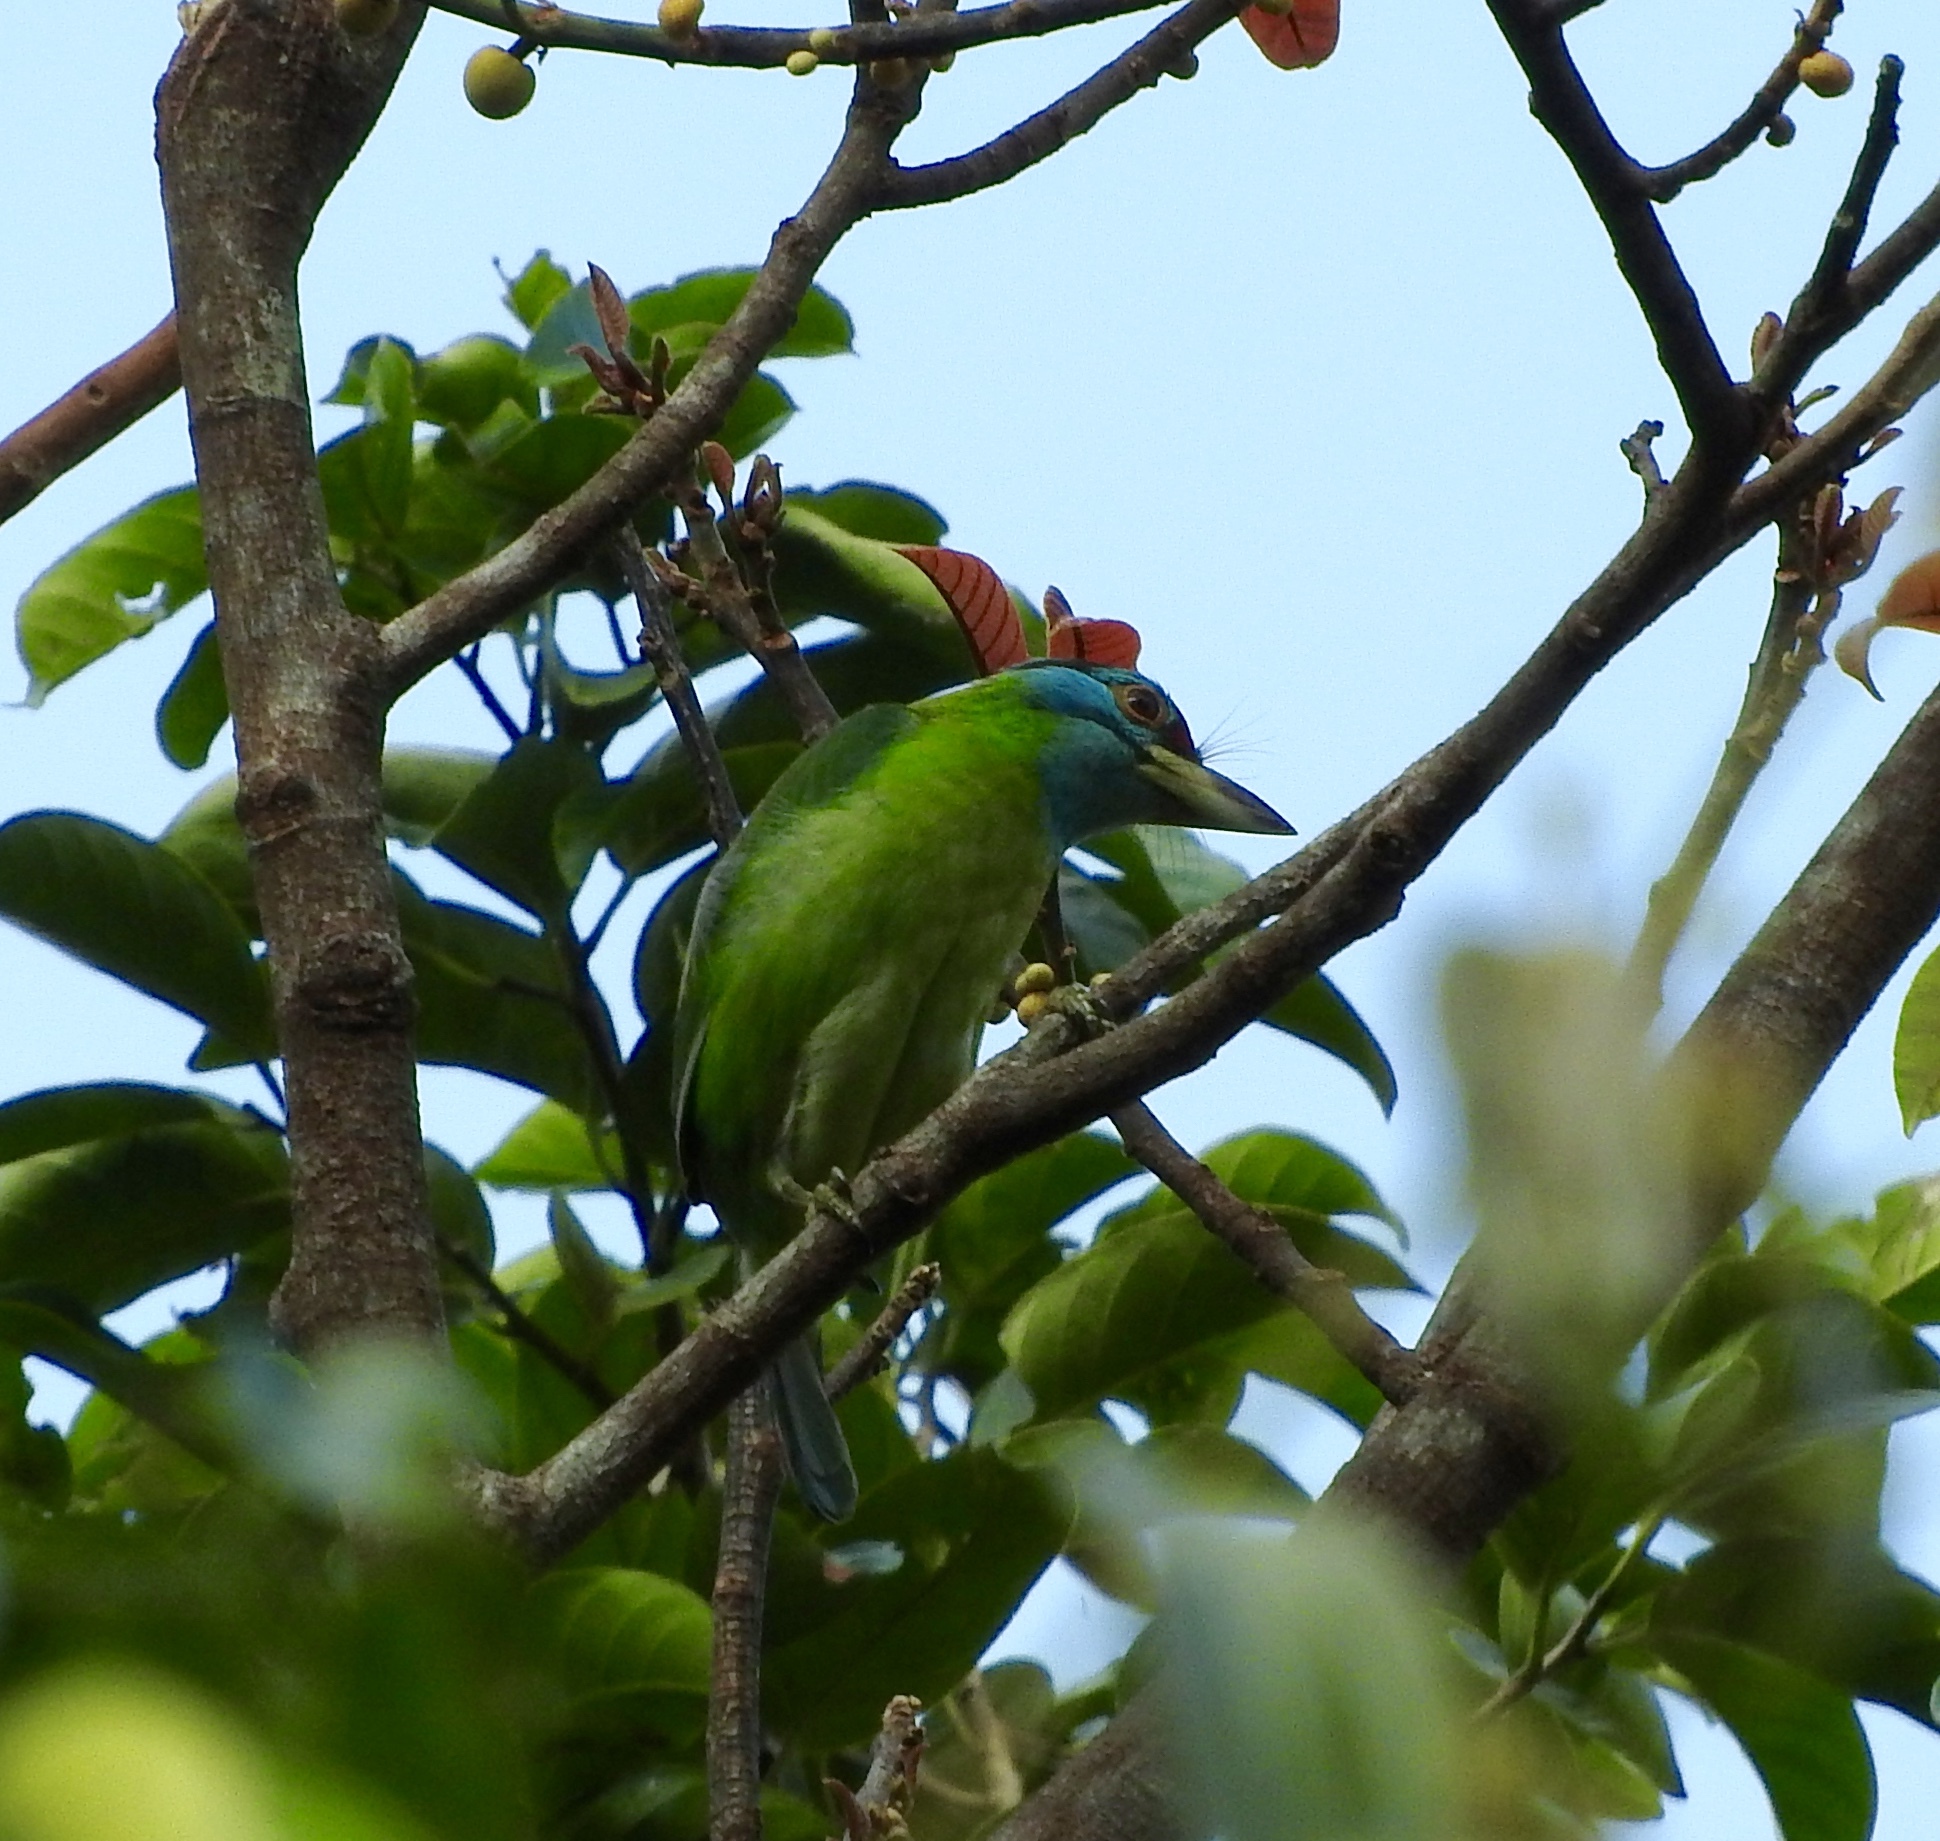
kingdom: Animalia
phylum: Chordata
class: Aves
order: Piciformes
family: Megalaimidae
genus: Psilopogon
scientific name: Psilopogon asiaticus
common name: Blue-throated barbet
